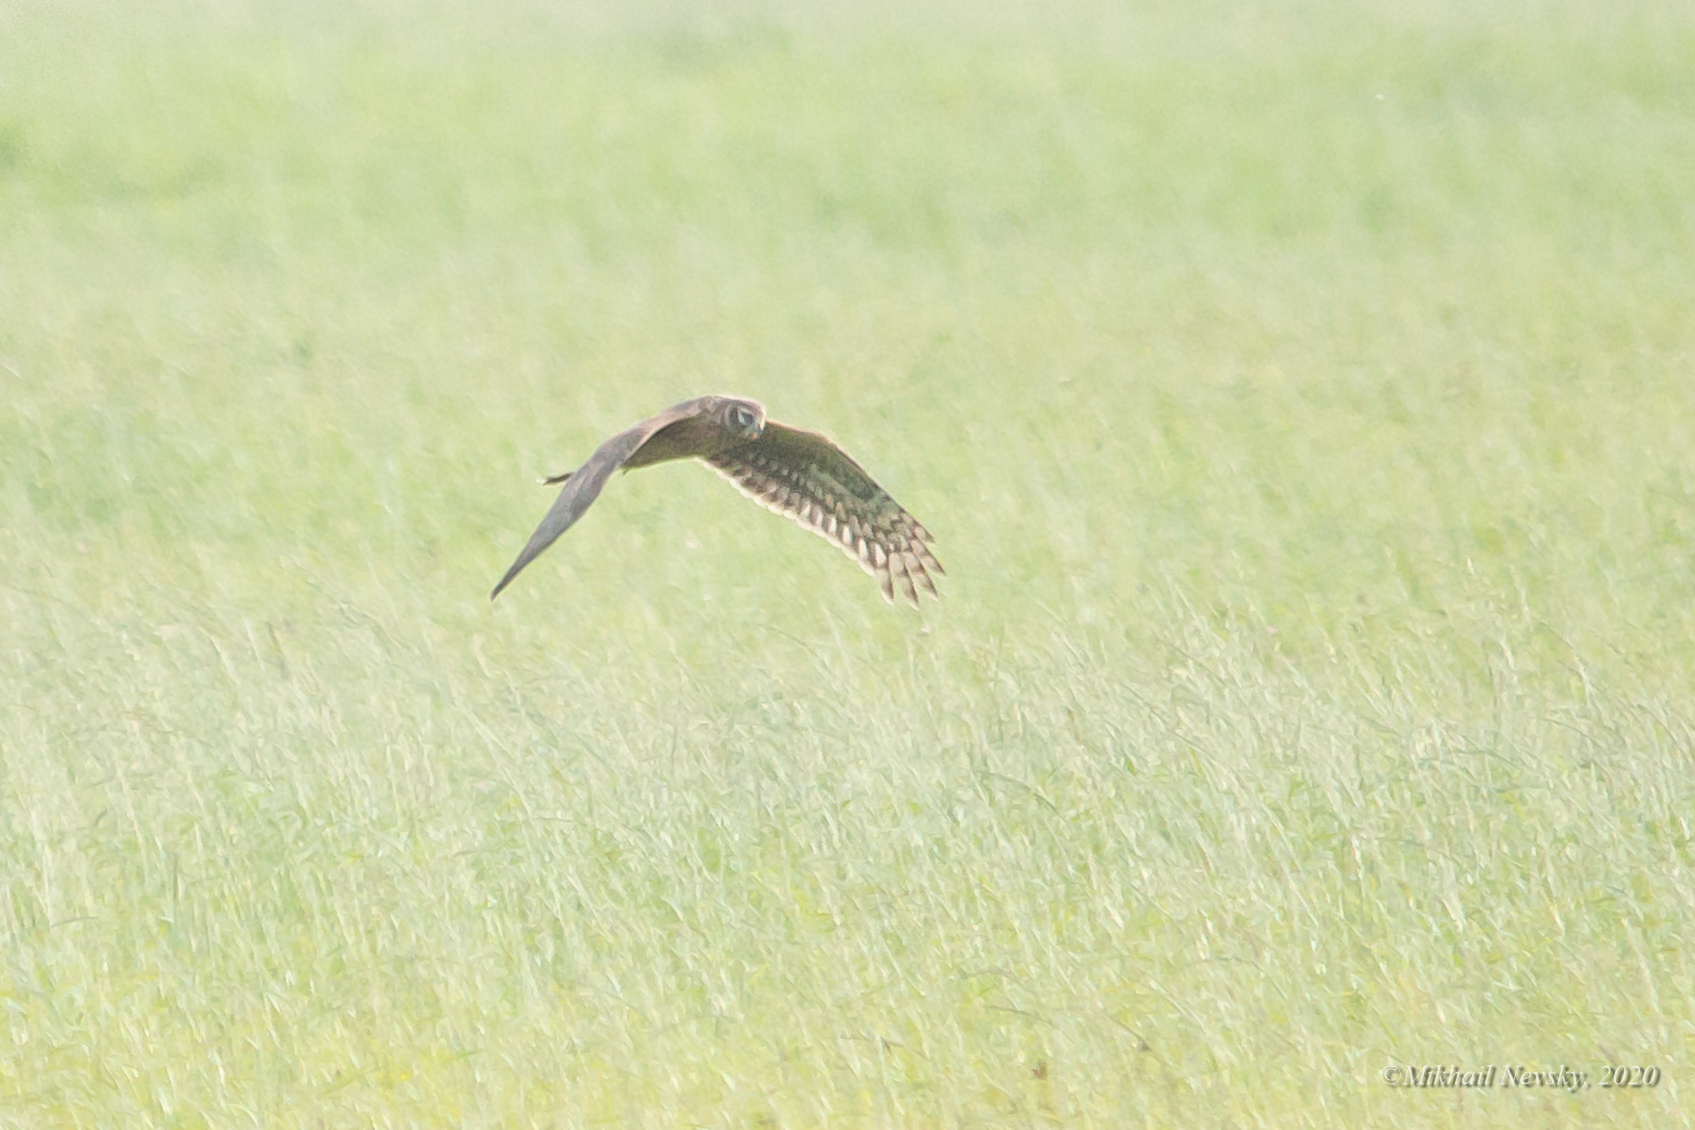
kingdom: Animalia
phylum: Chordata
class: Aves
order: Accipitriformes
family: Accipitridae
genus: Circus
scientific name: Circus cyaneus
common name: Hen harrier
